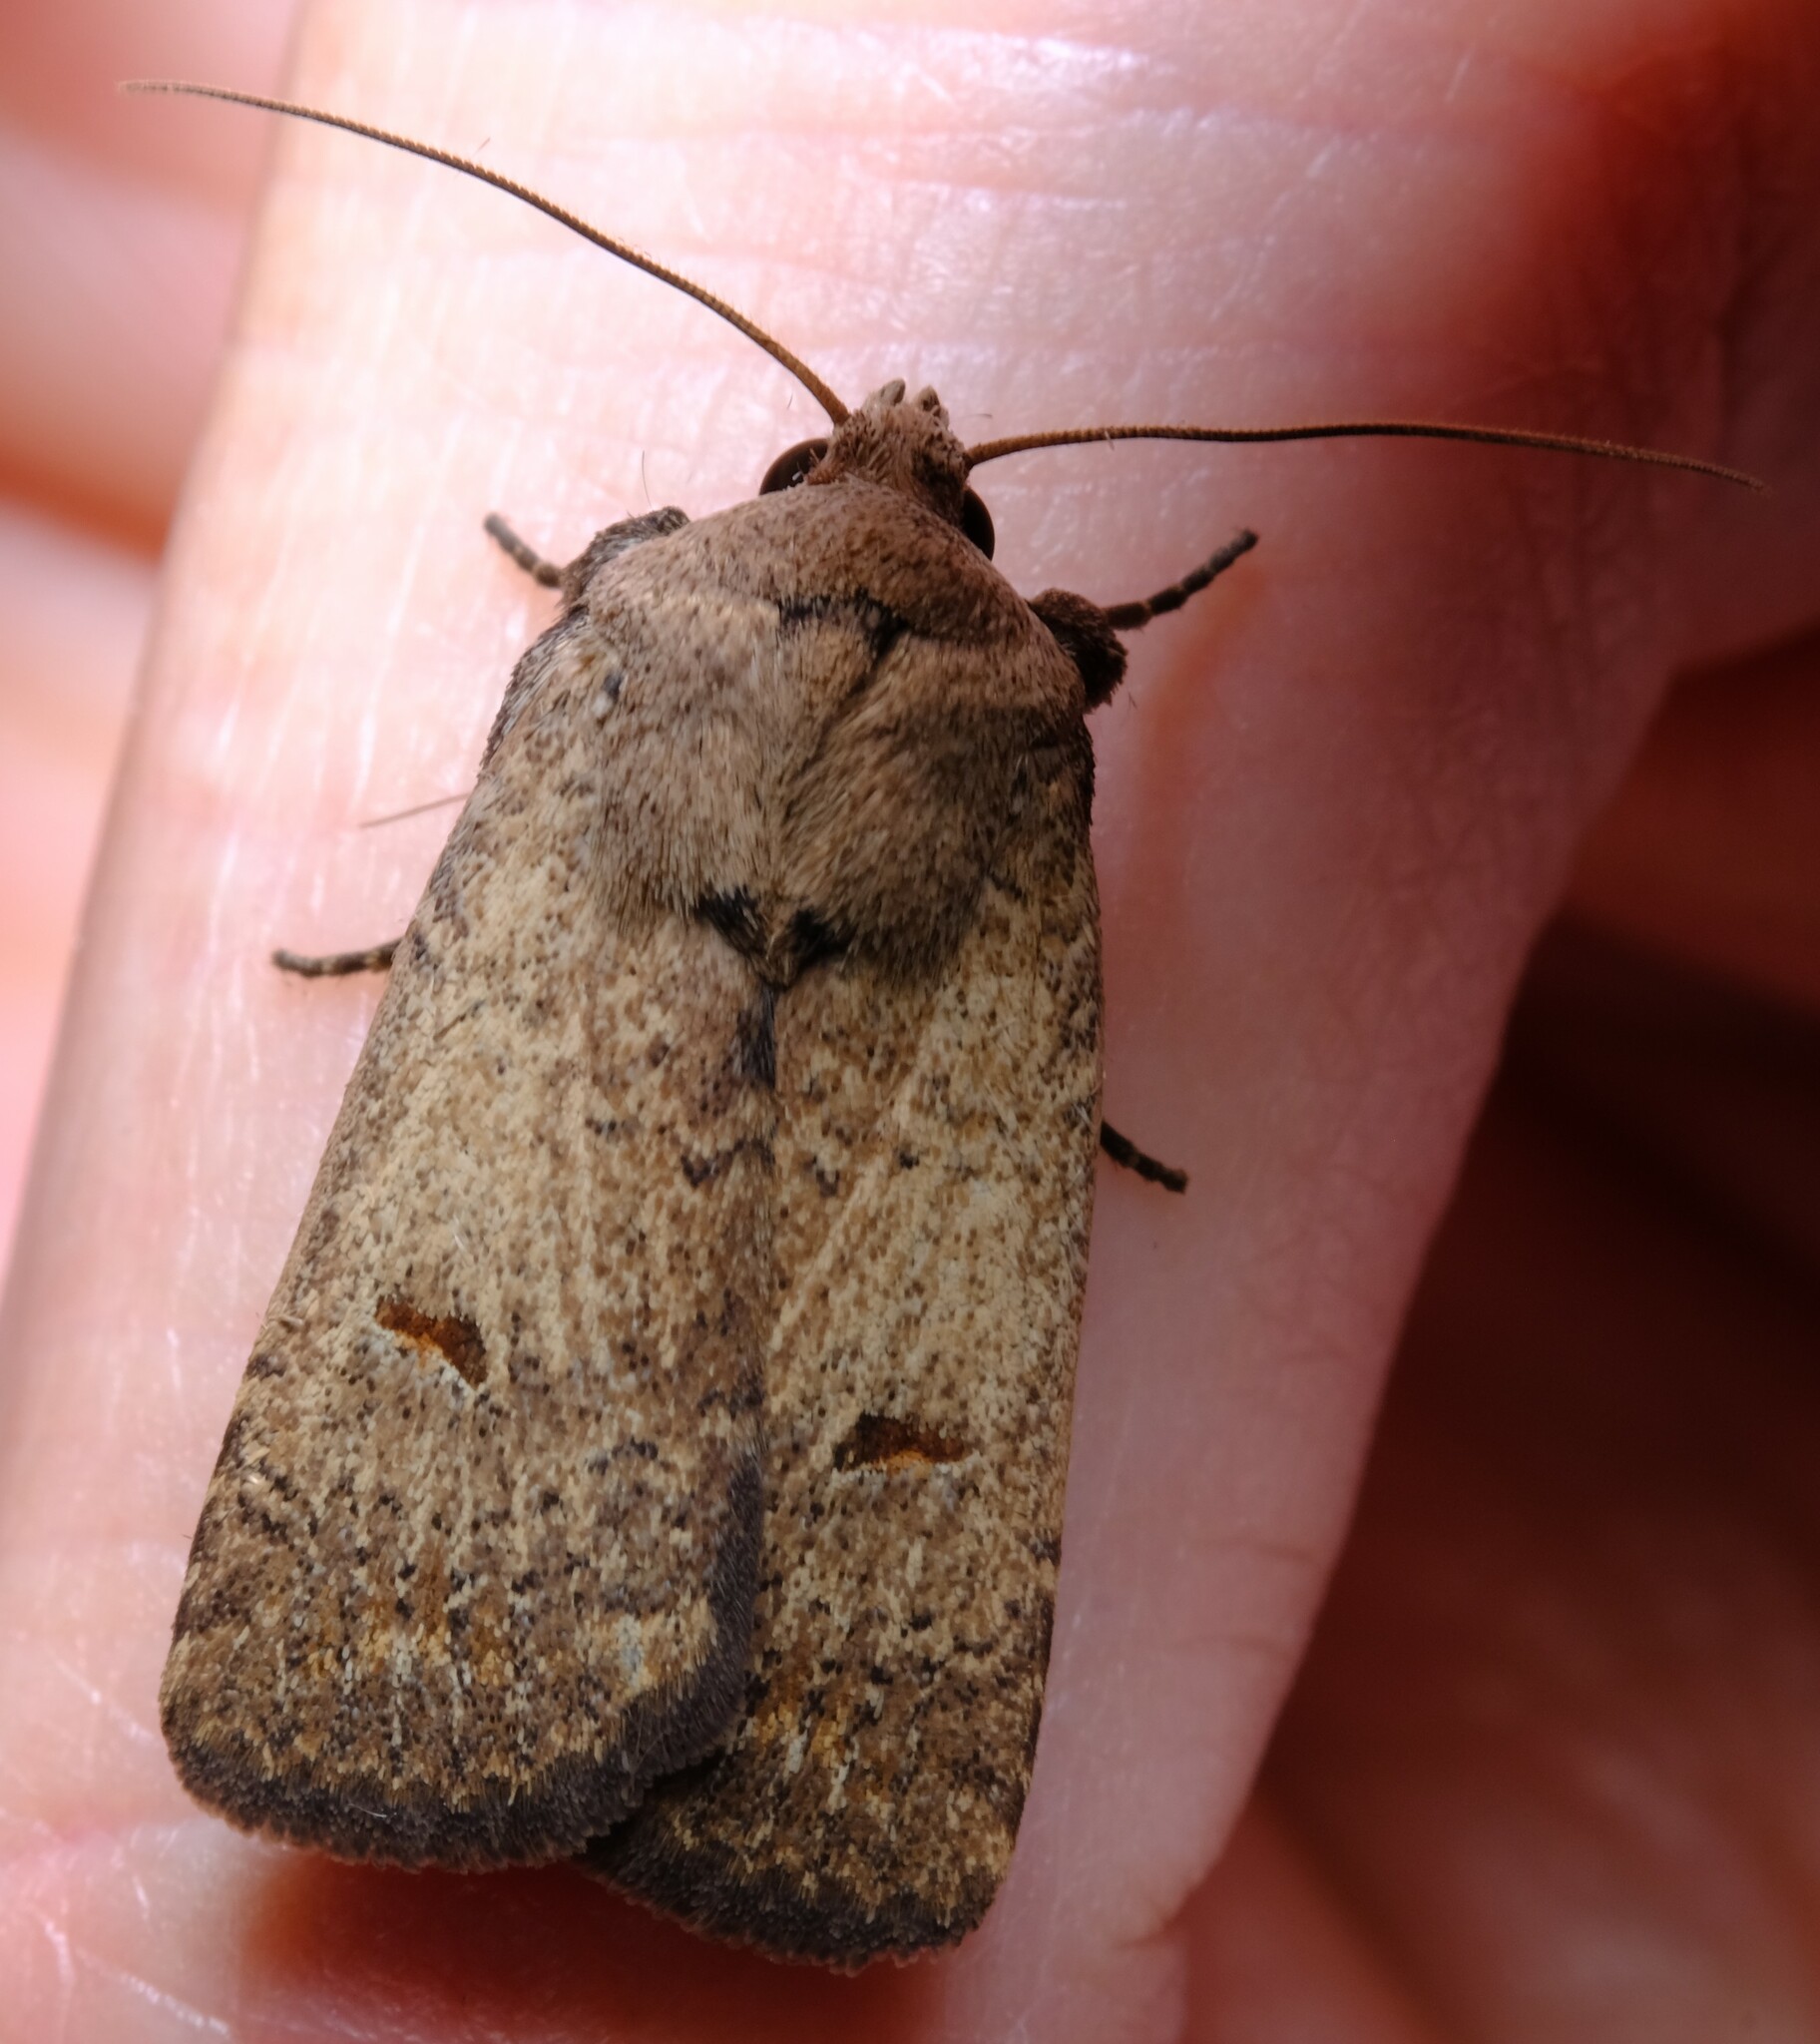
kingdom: Animalia
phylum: Arthropoda
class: Insecta
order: Lepidoptera
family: Noctuidae
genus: Proteuxoa
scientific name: Proteuxoa hypochalchis
